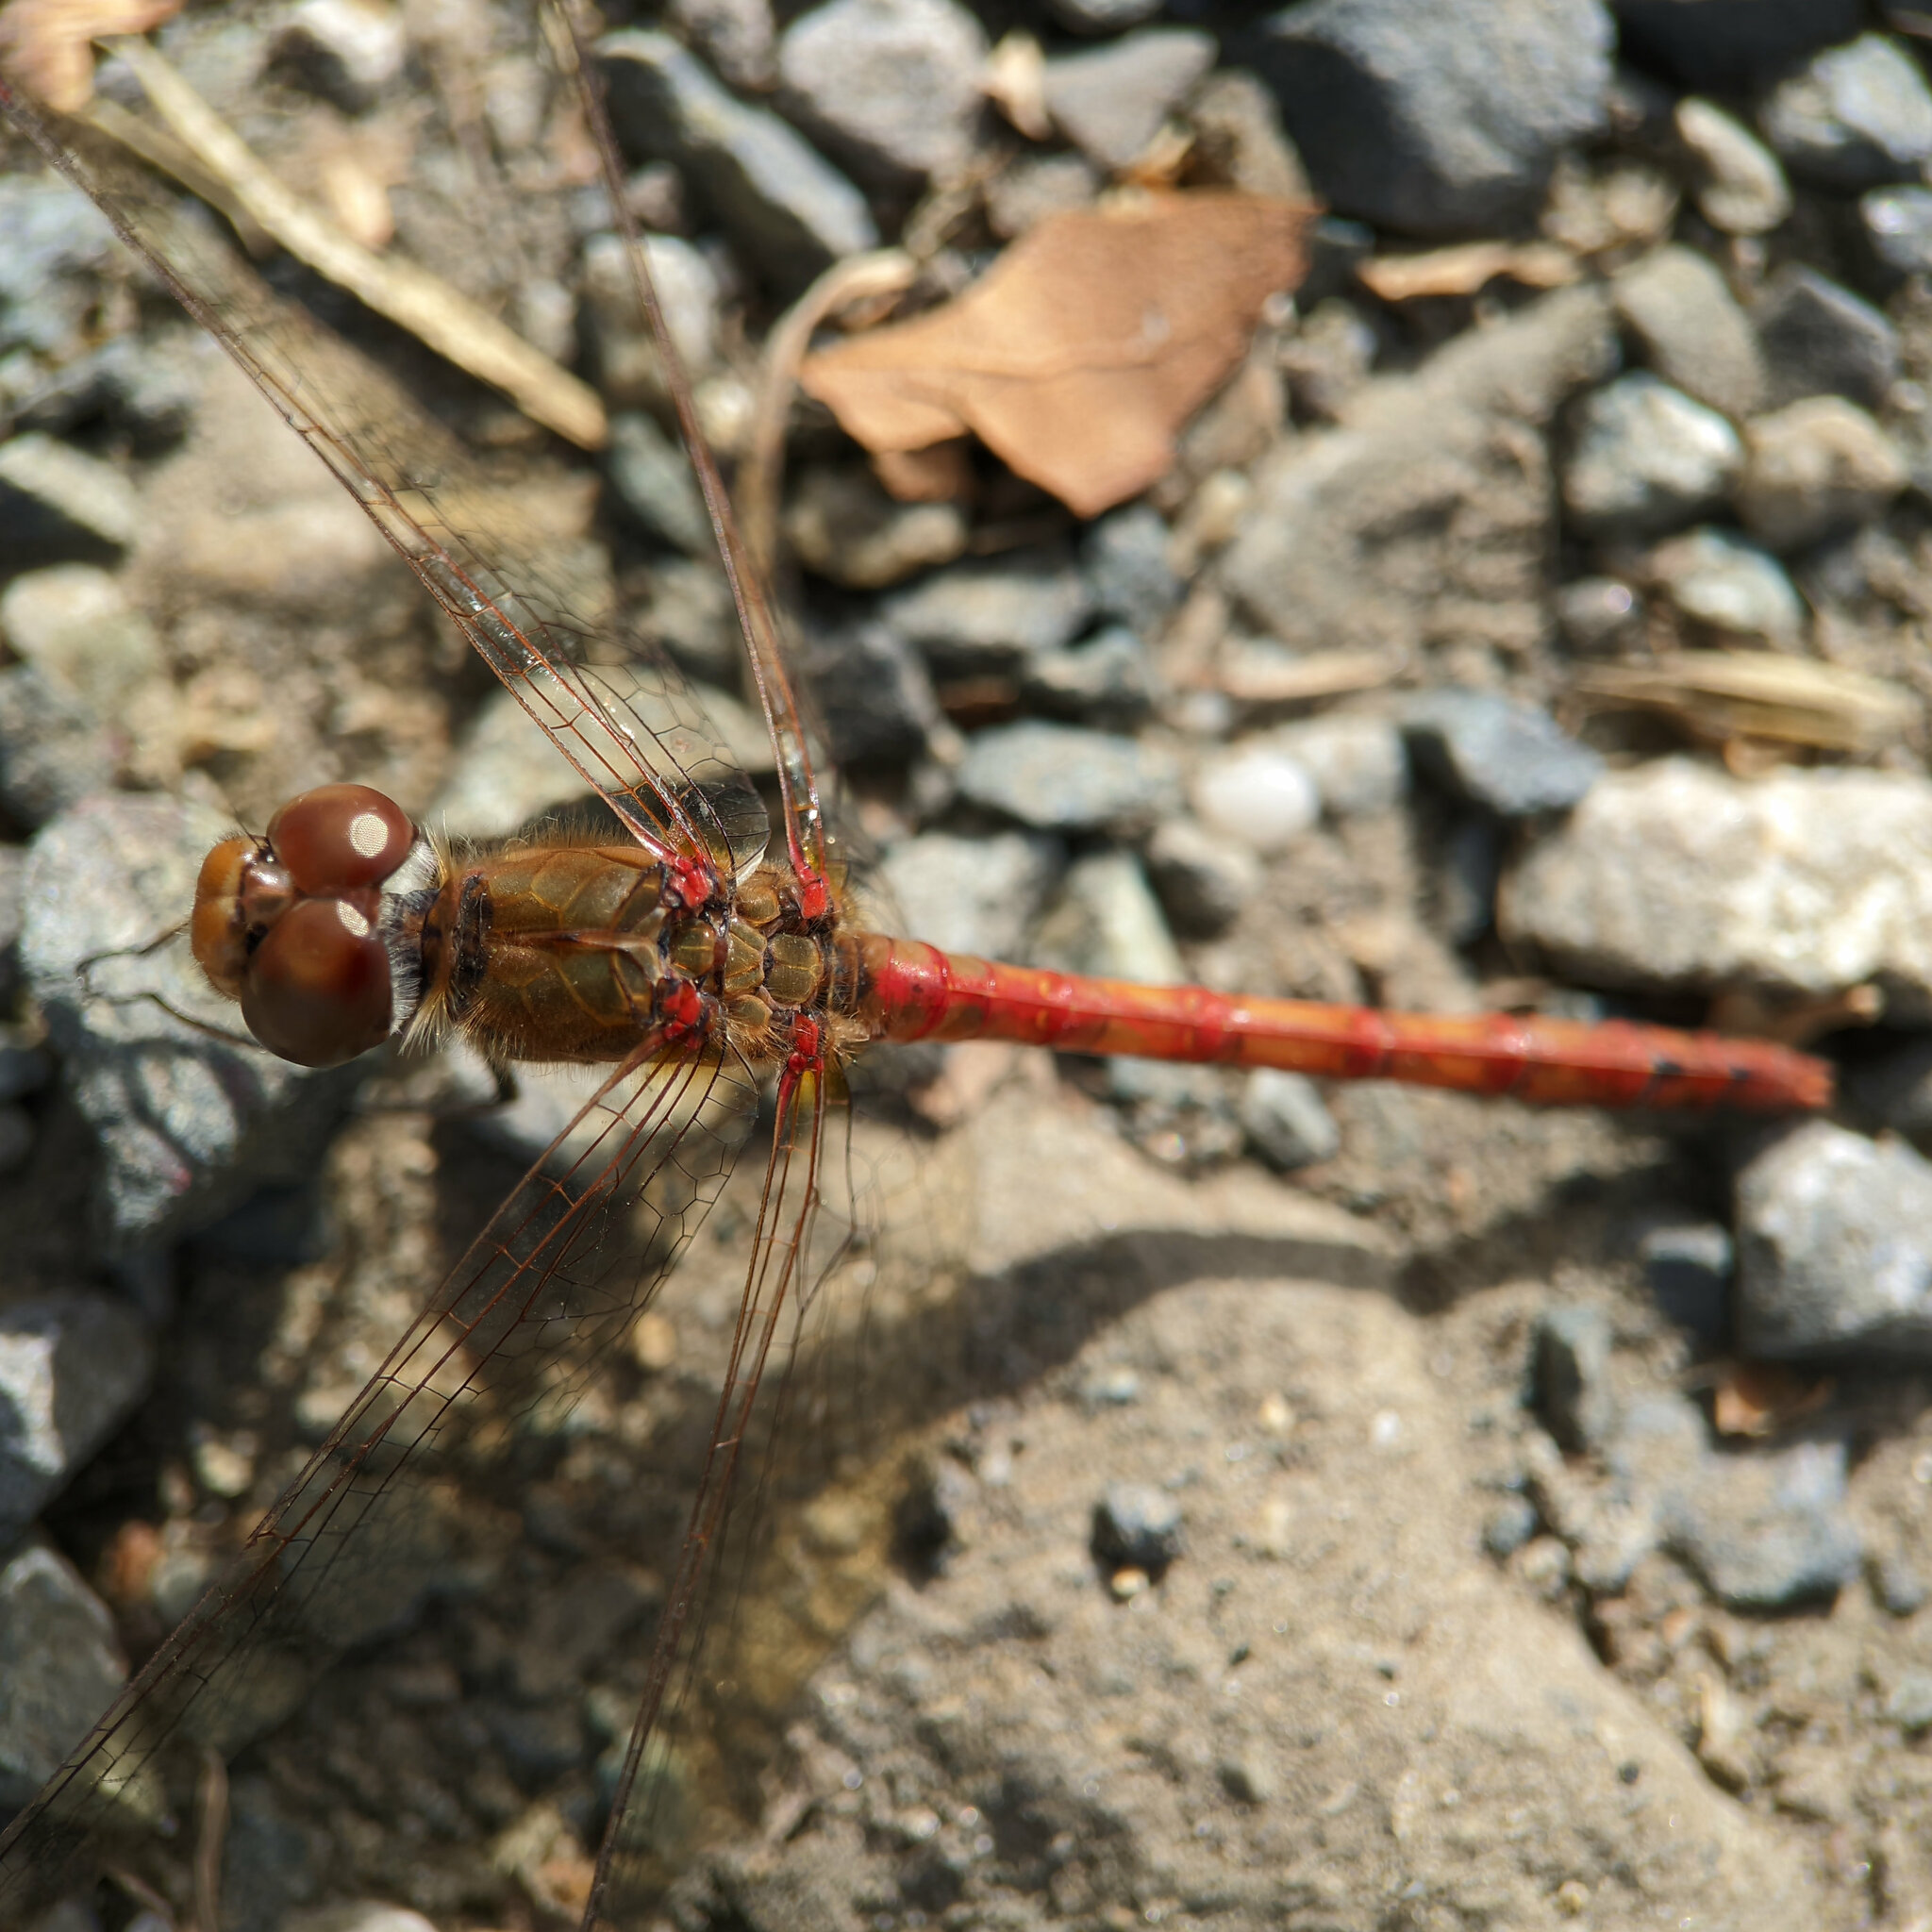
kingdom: Animalia
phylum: Arthropoda
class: Insecta
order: Odonata
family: Libellulidae
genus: Sympetrum
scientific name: Sympetrum striolatum
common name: Common darter
